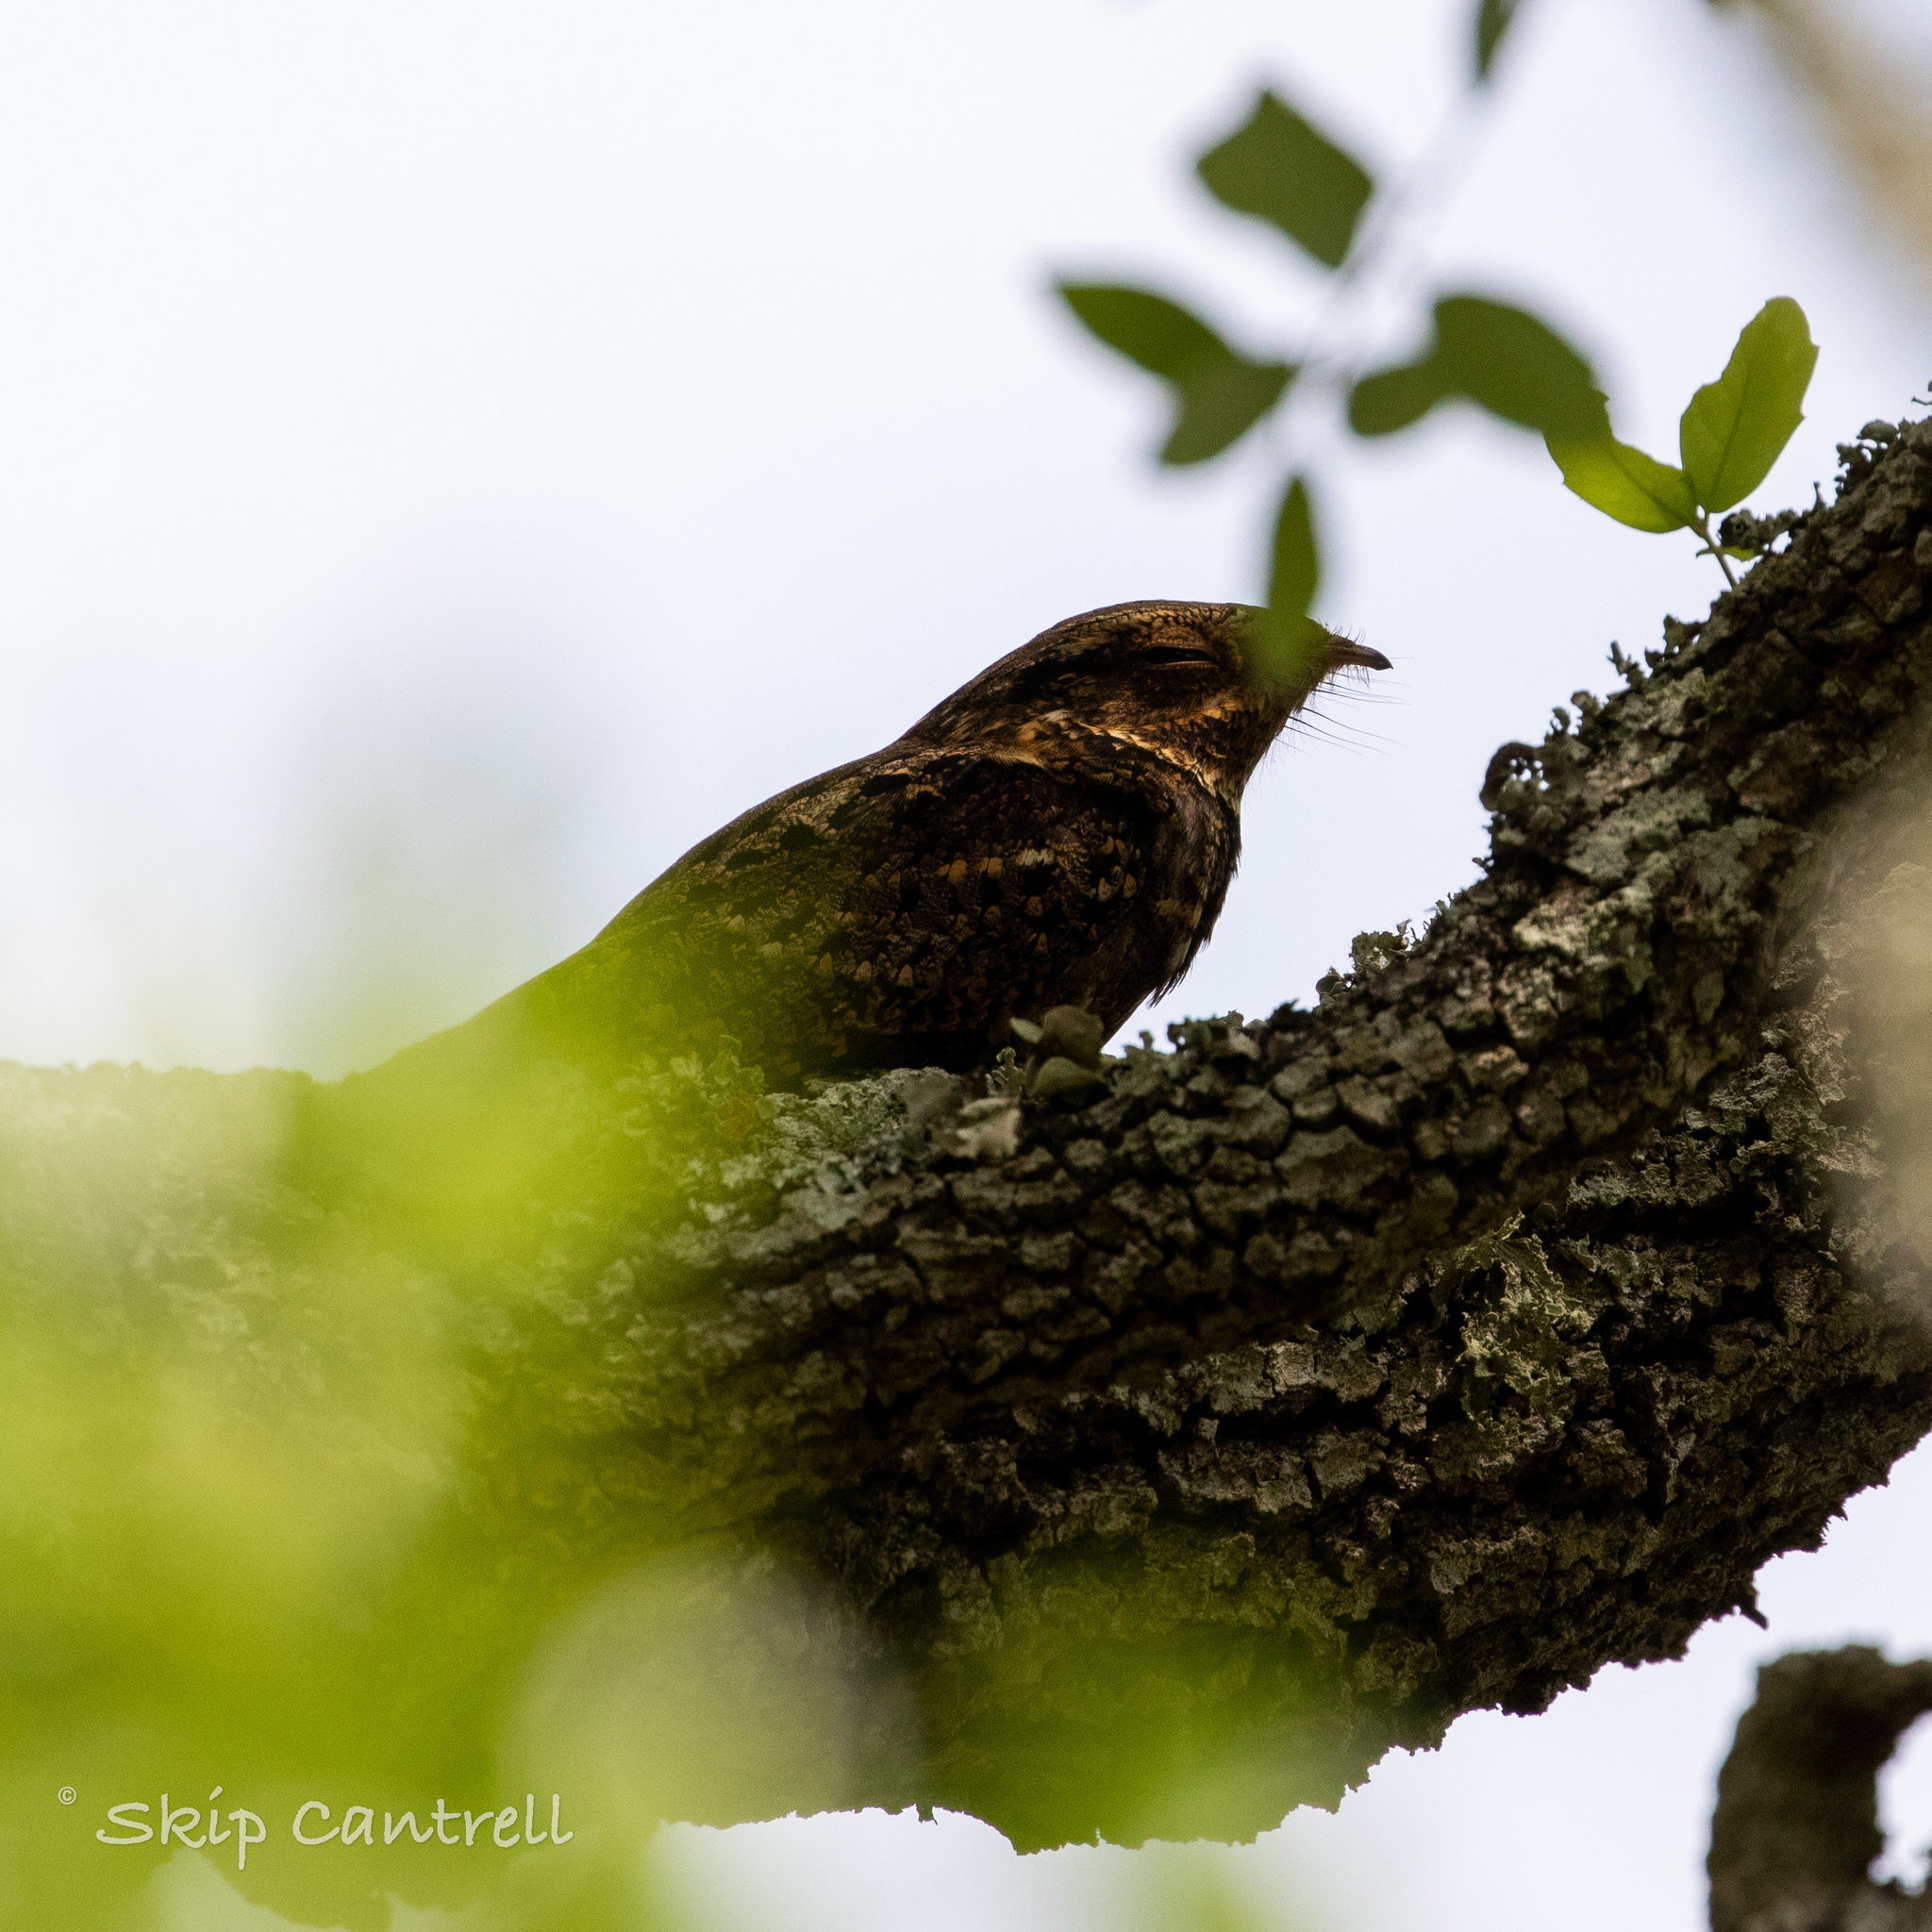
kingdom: Animalia
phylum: Chordata
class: Aves
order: Caprimulgiformes
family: Caprimulgidae
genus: Antrostomus
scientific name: Antrostomus carolinensis
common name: Chuck-will's-widow
